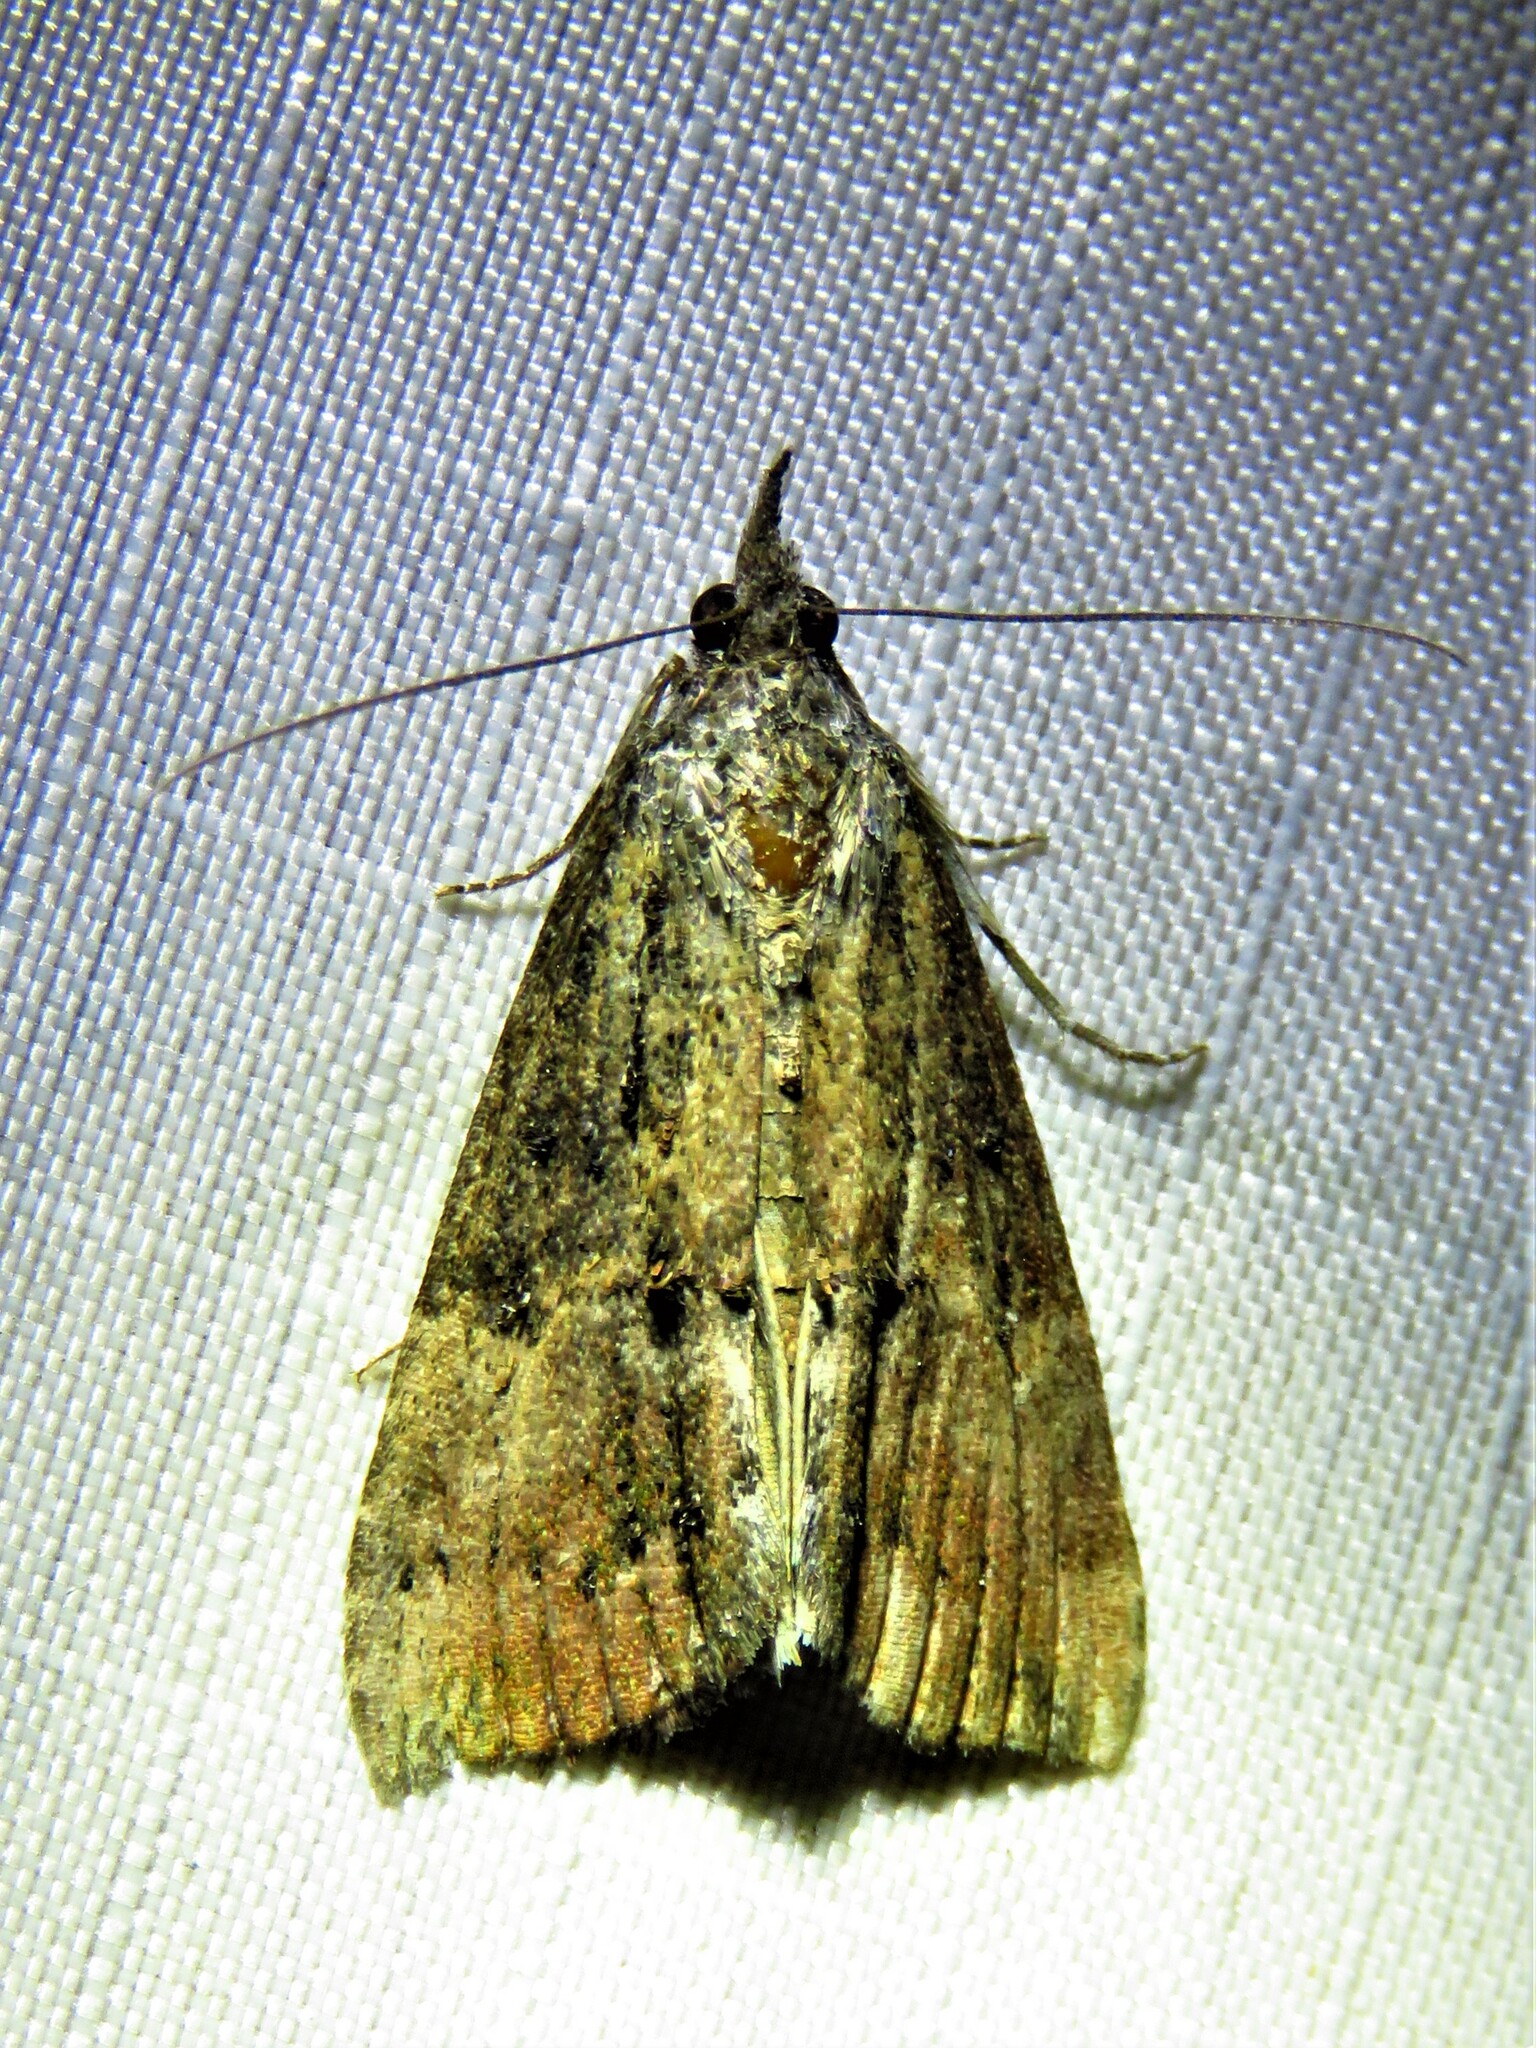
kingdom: Animalia
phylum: Arthropoda
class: Insecta
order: Lepidoptera
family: Erebidae
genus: Hypena
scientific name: Hypena scabra
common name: Green cloverworm
